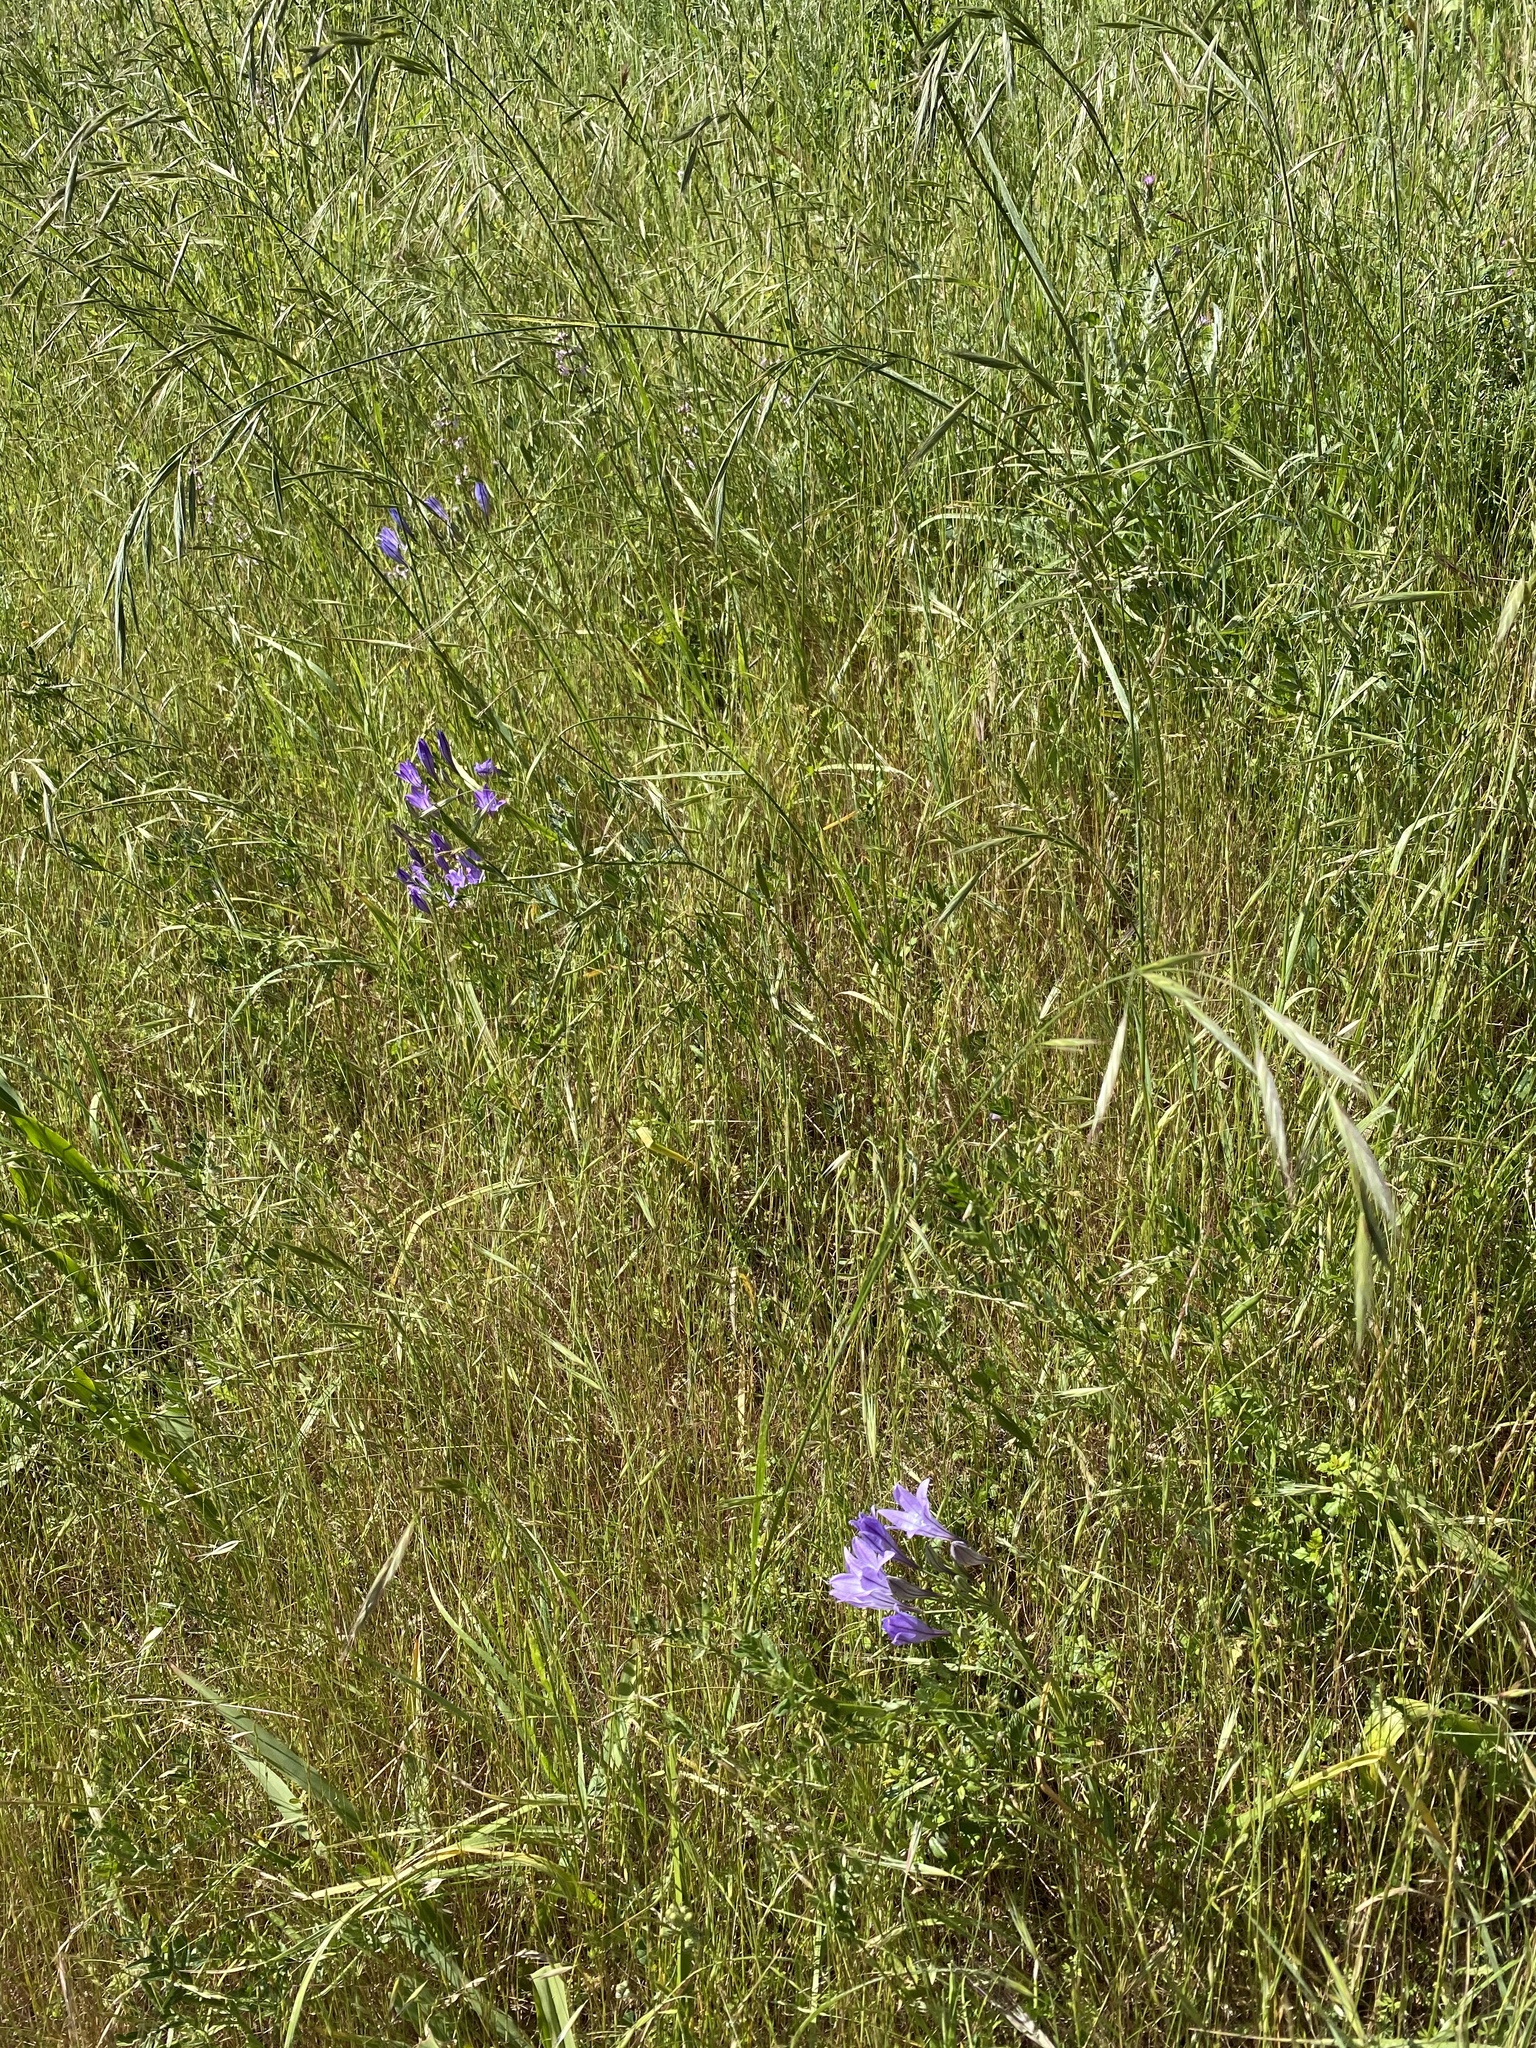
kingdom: Plantae
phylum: Tracheophyta
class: Liliopsida
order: Asparagales
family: Asparagaceae
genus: Triteleia
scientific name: Triteleia laxa
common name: Triplet-lily
